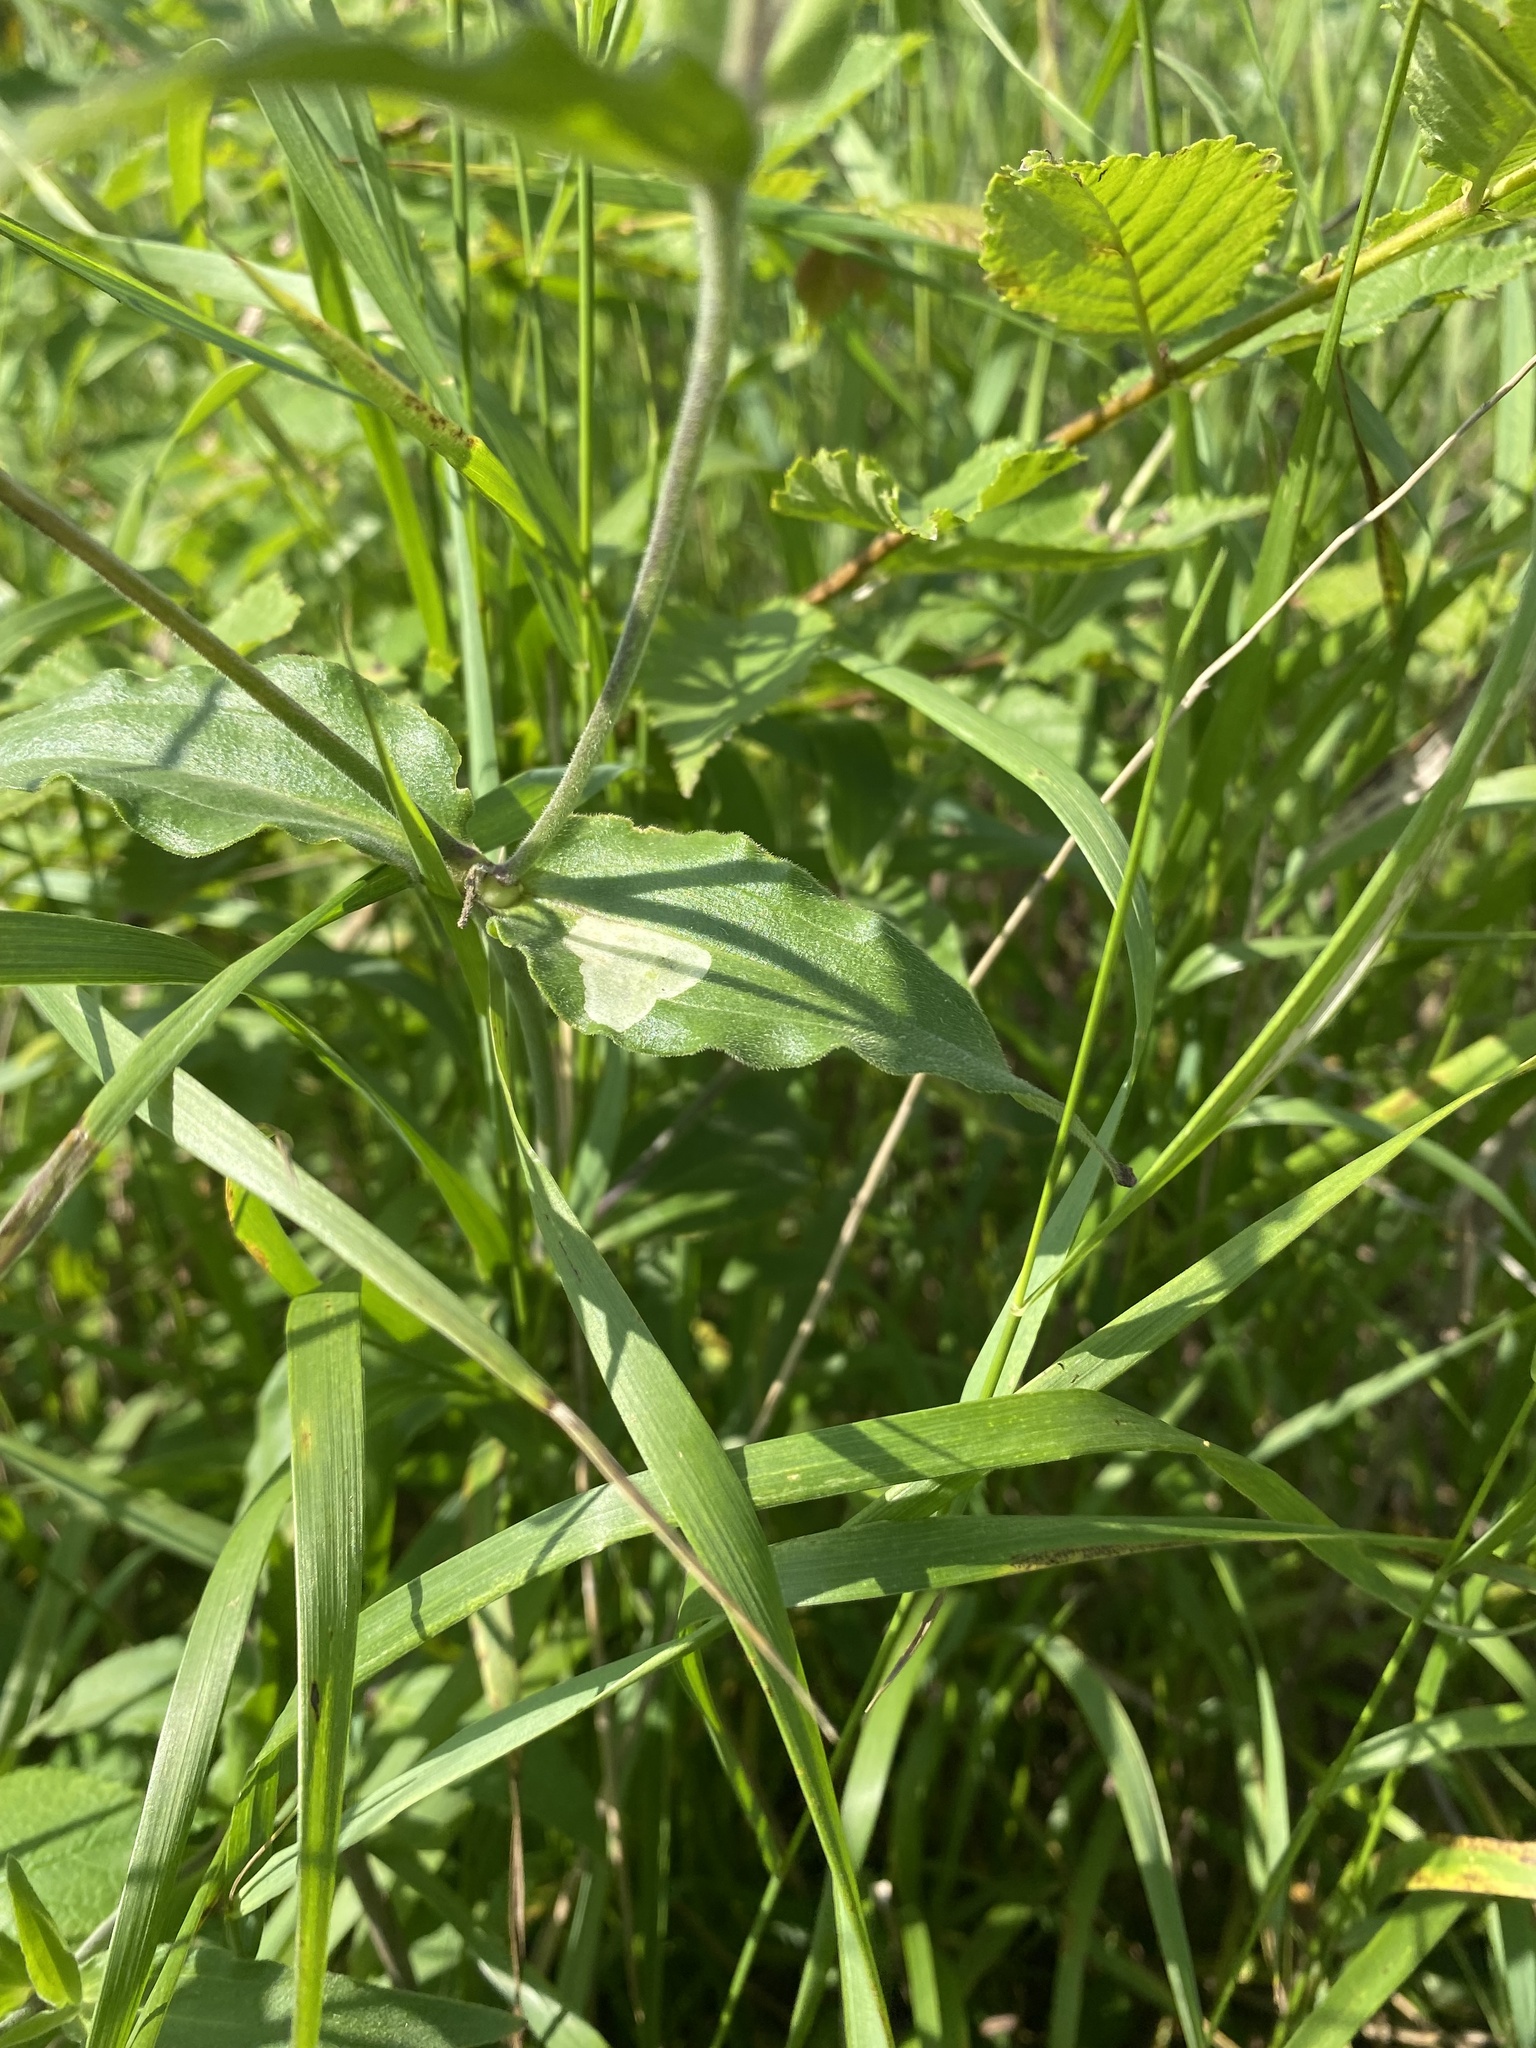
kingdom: Plantae
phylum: Tracheophyta
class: Magnoliopsida
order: Caryophyllales
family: Caryophyllaceae
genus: Silene
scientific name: Silene latifolia
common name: White campion
